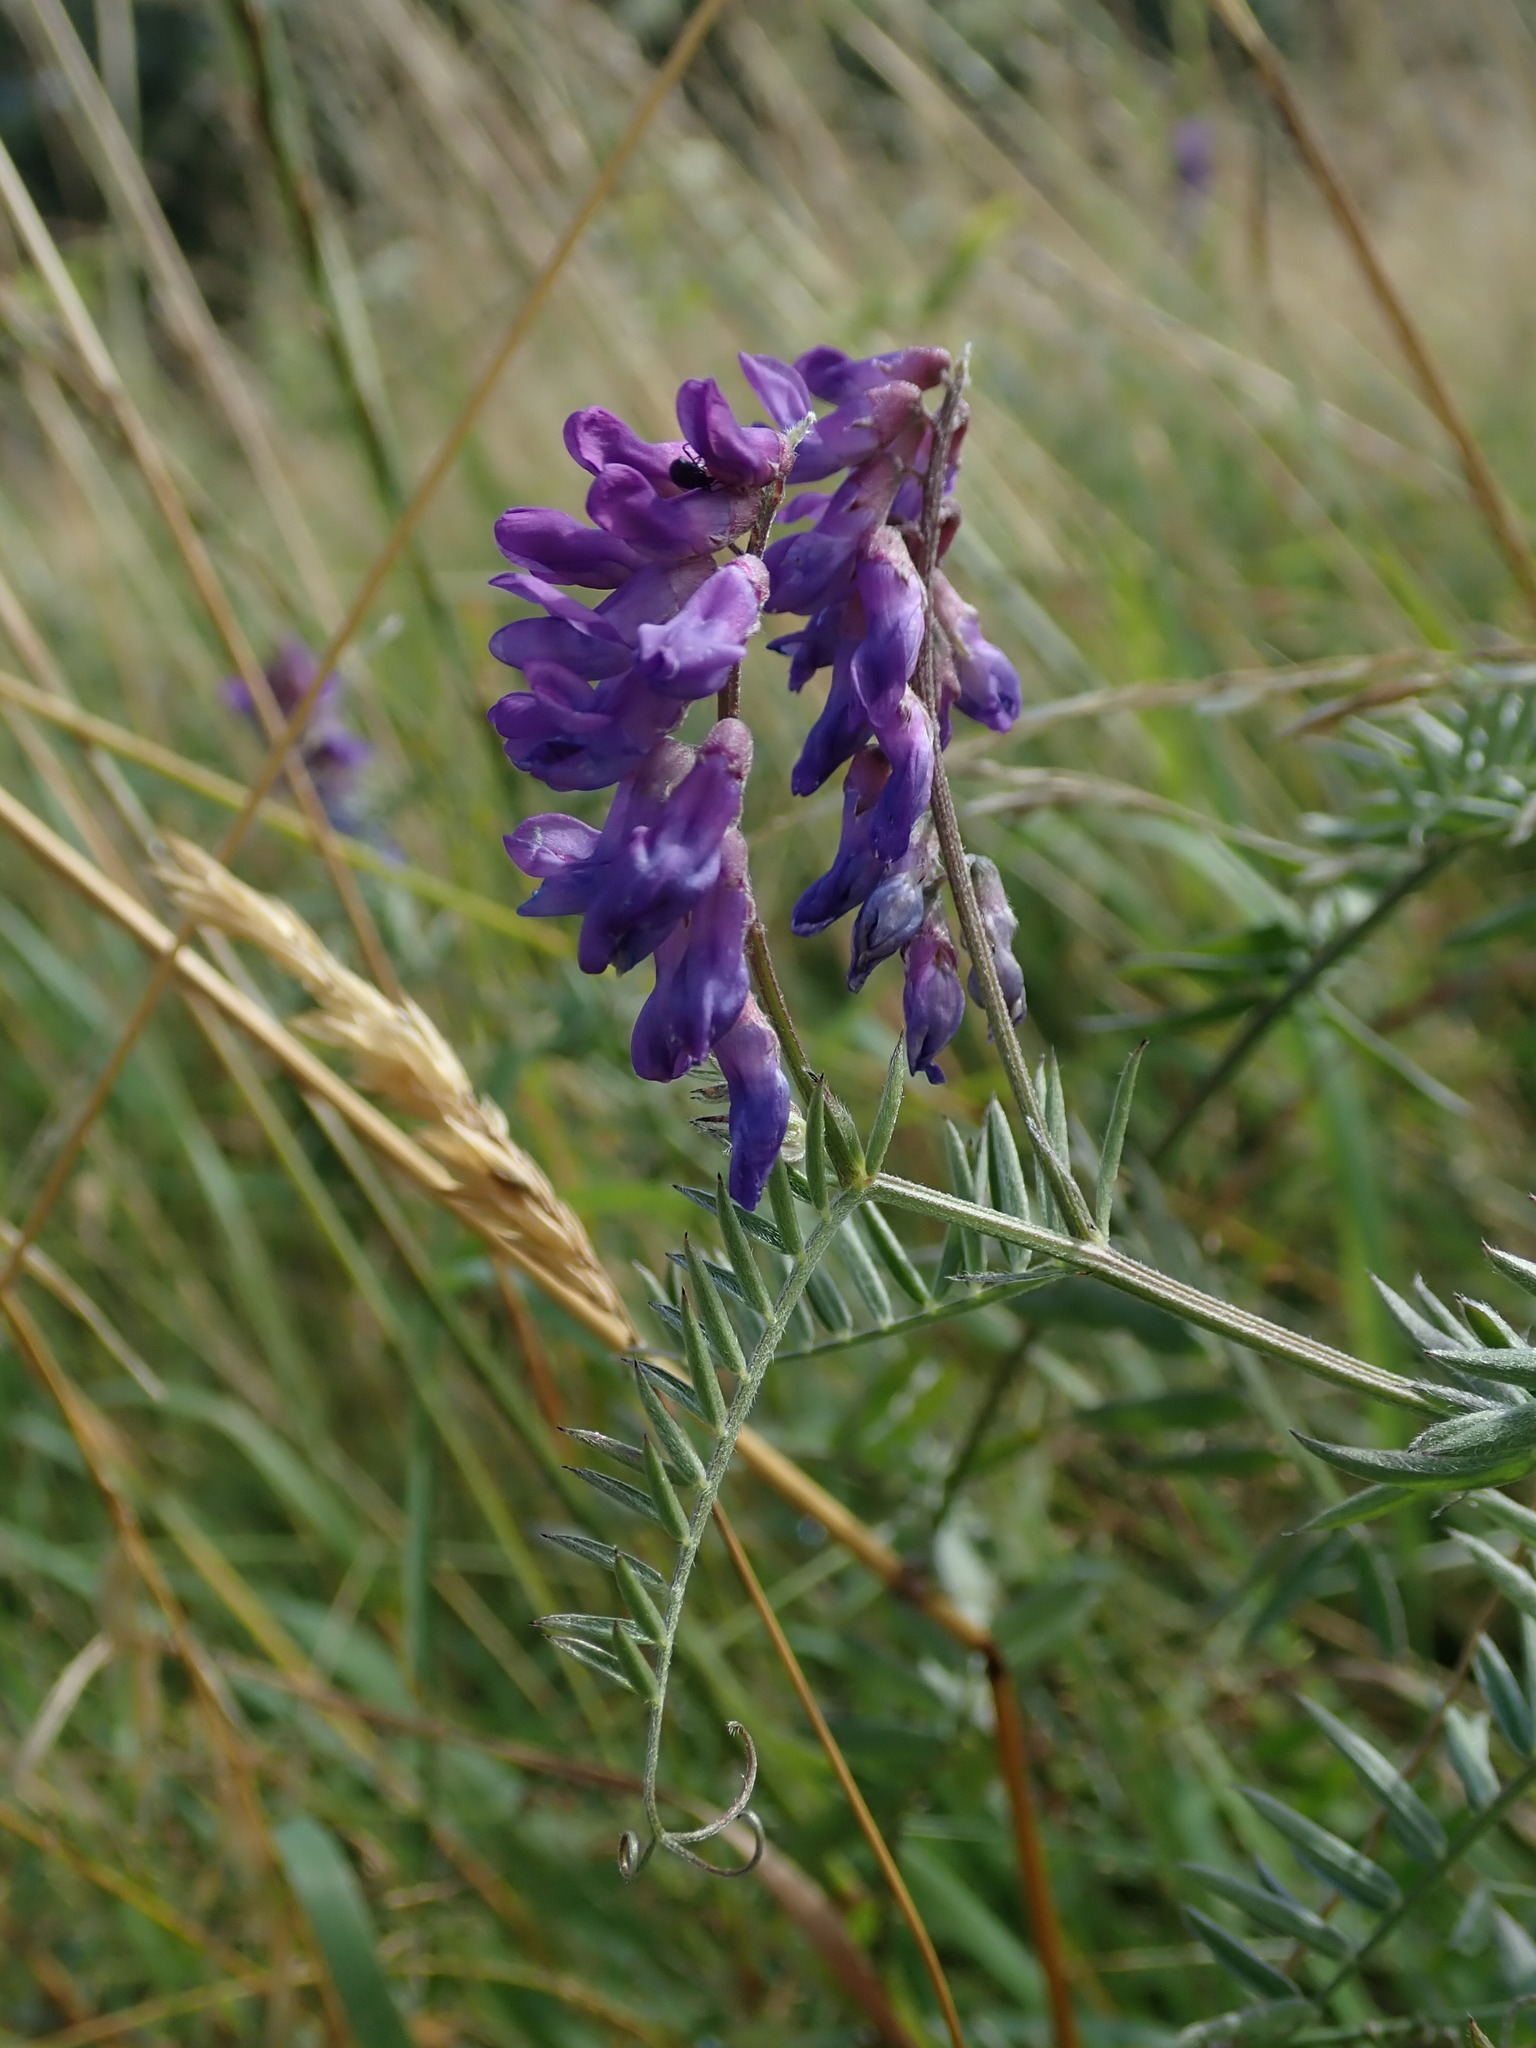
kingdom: Plantae
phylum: Tracheophyta
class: Magnoliopsida
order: Fabales
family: Fabaceae
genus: Vicia
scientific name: Vicia cracca
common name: Bird vetch
